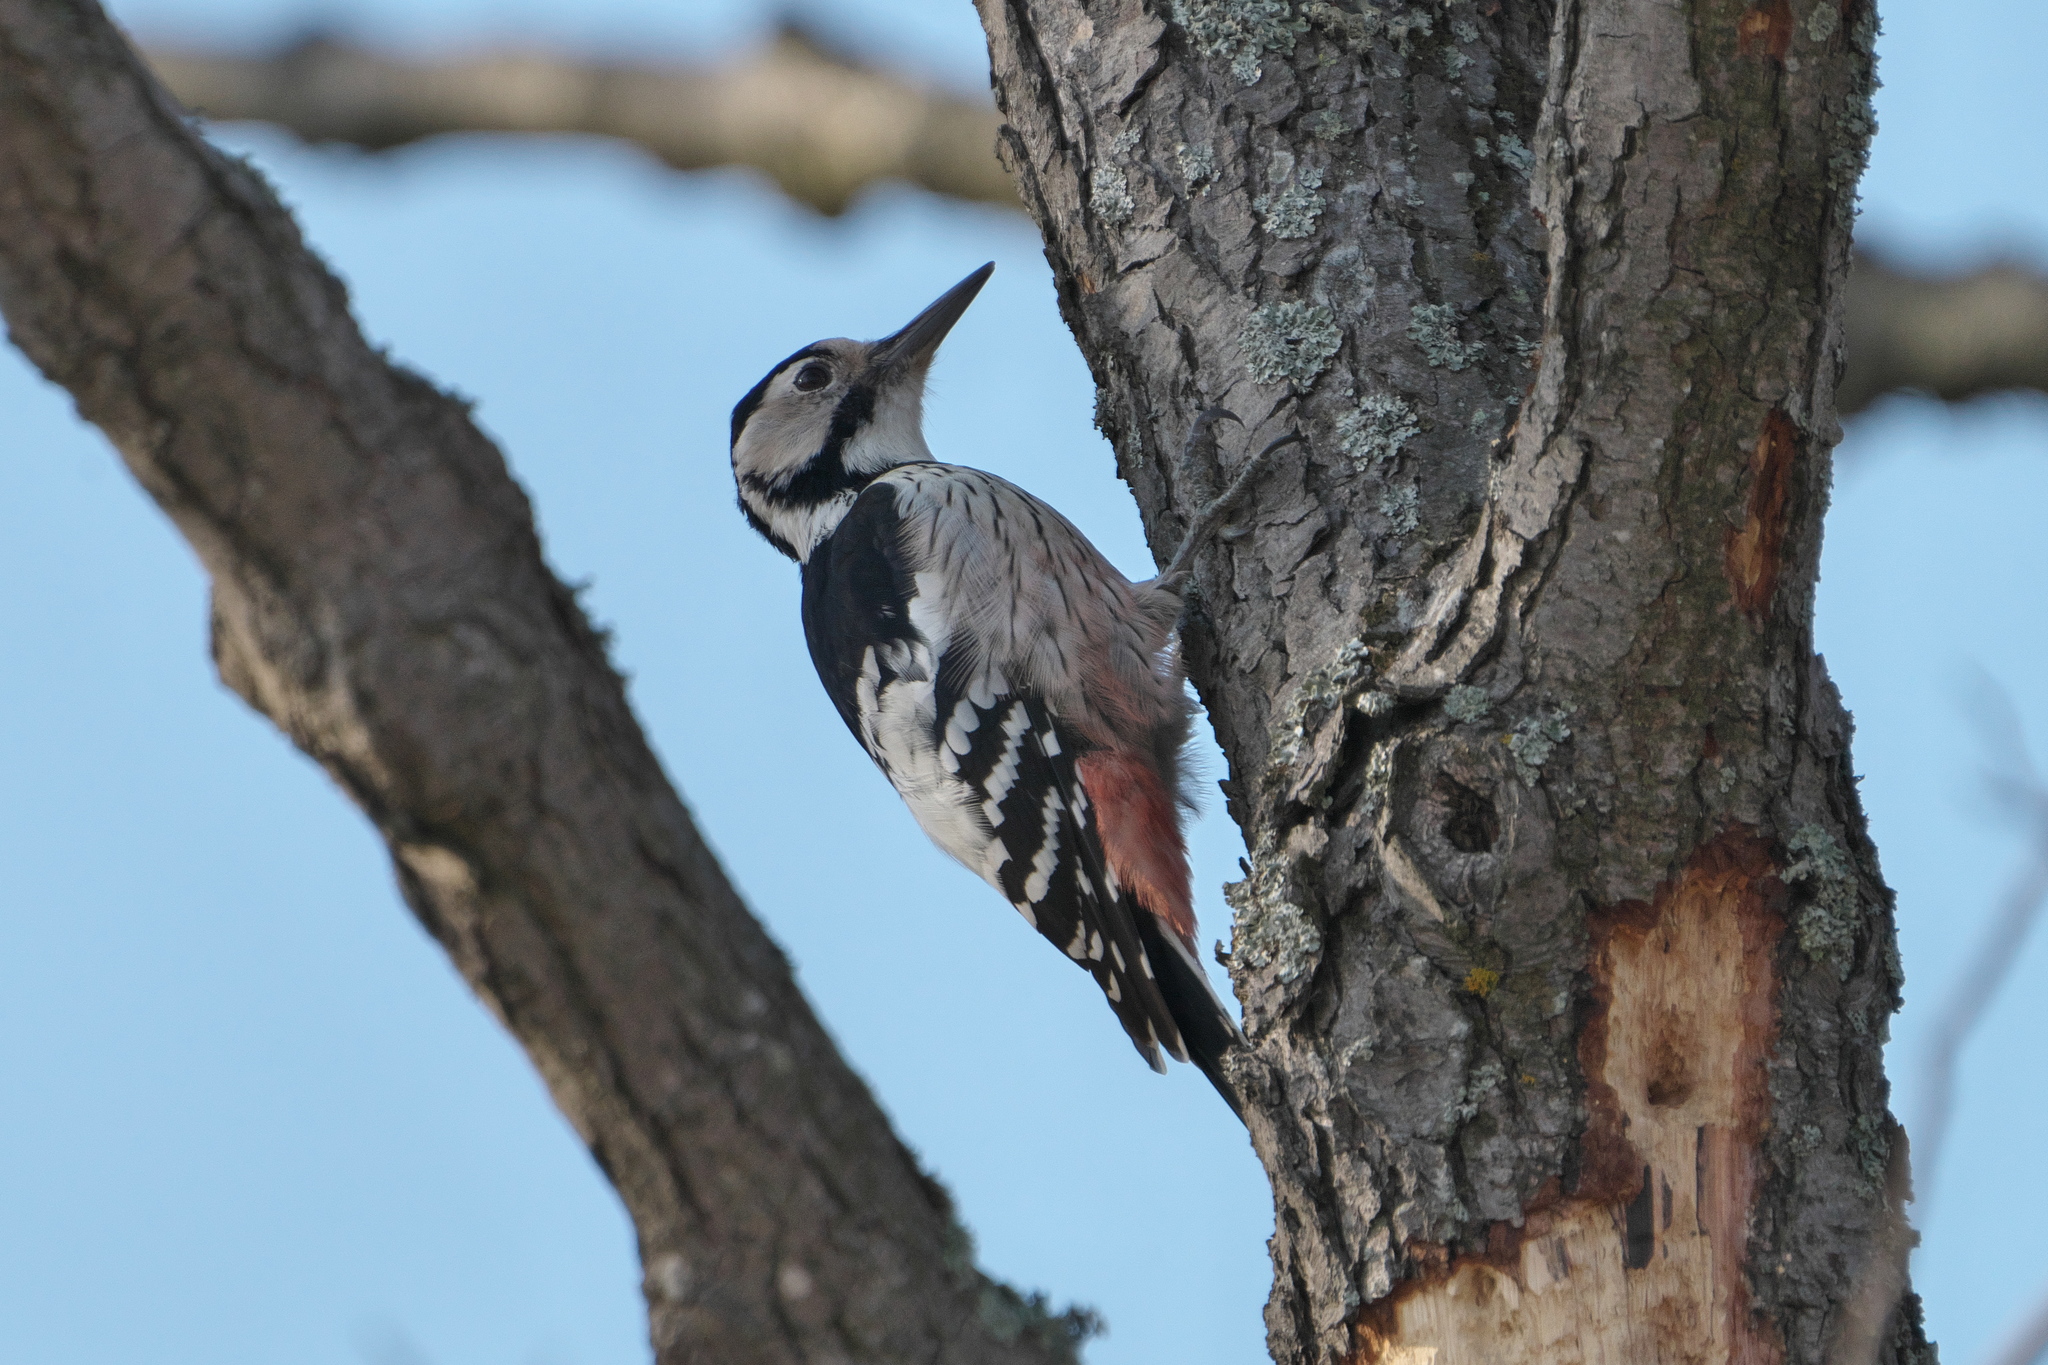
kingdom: Animalia
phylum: Chordata
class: Aves
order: Piciformes
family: Picidae
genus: Dendrocopos
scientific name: Dendrocopos leucotos
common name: White-backed woodpecker
